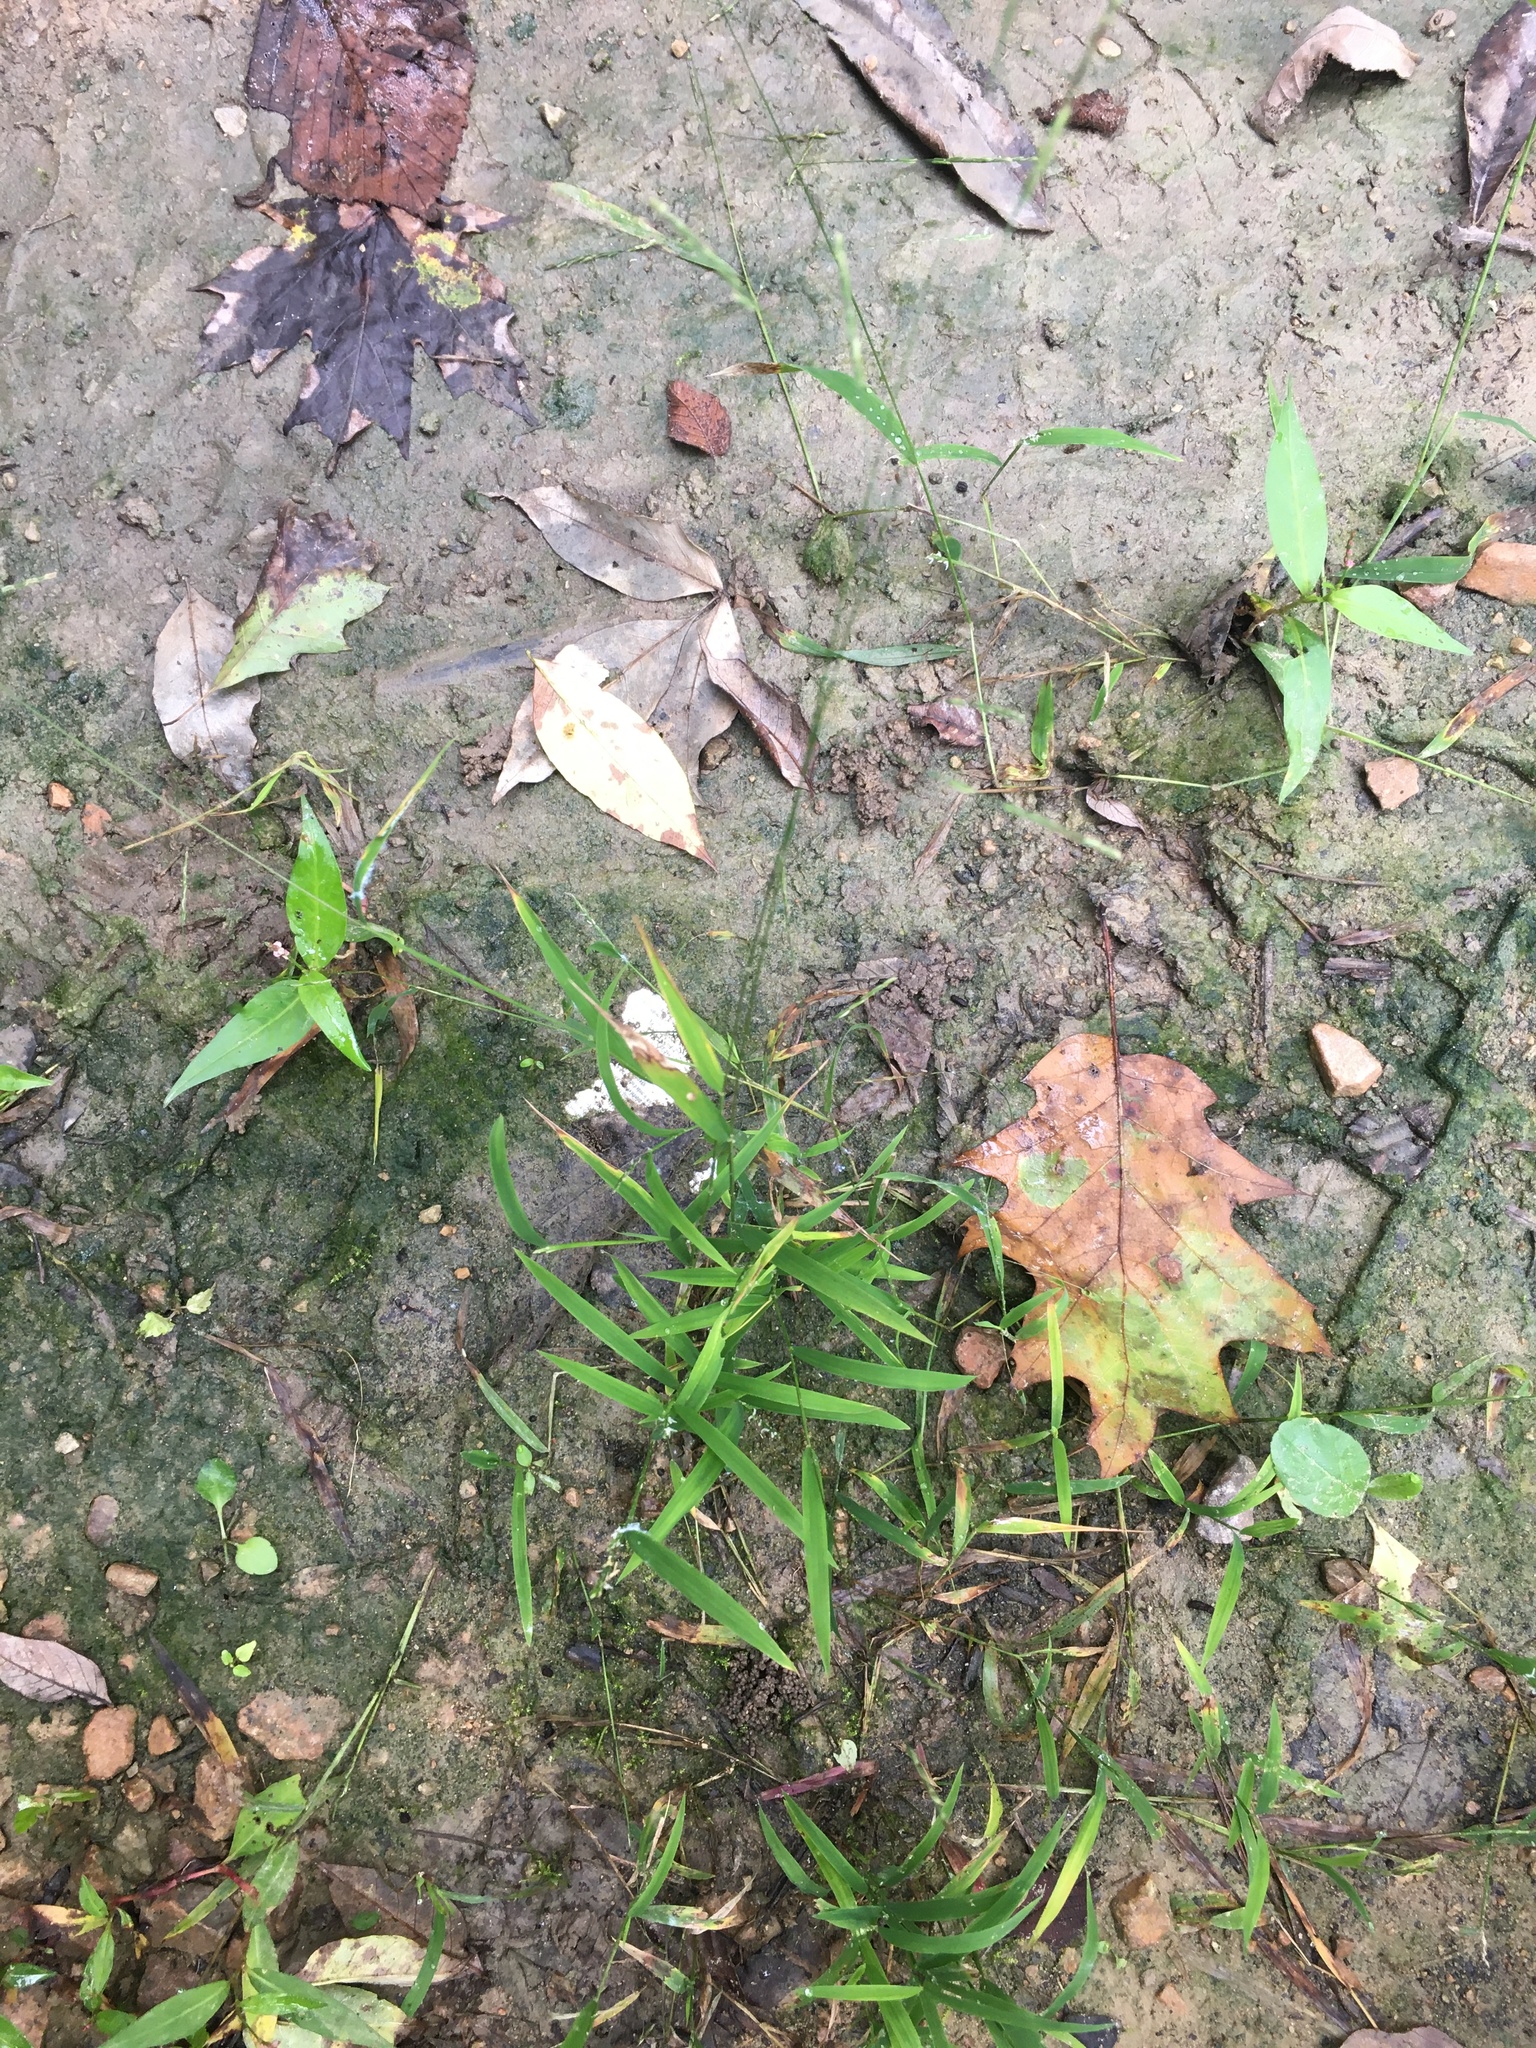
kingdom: Plantae
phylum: Tracheophyta
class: Liliopsida
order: Poales
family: Poaceae
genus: Leersia
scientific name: Leersia virginica
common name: White cutgrass
